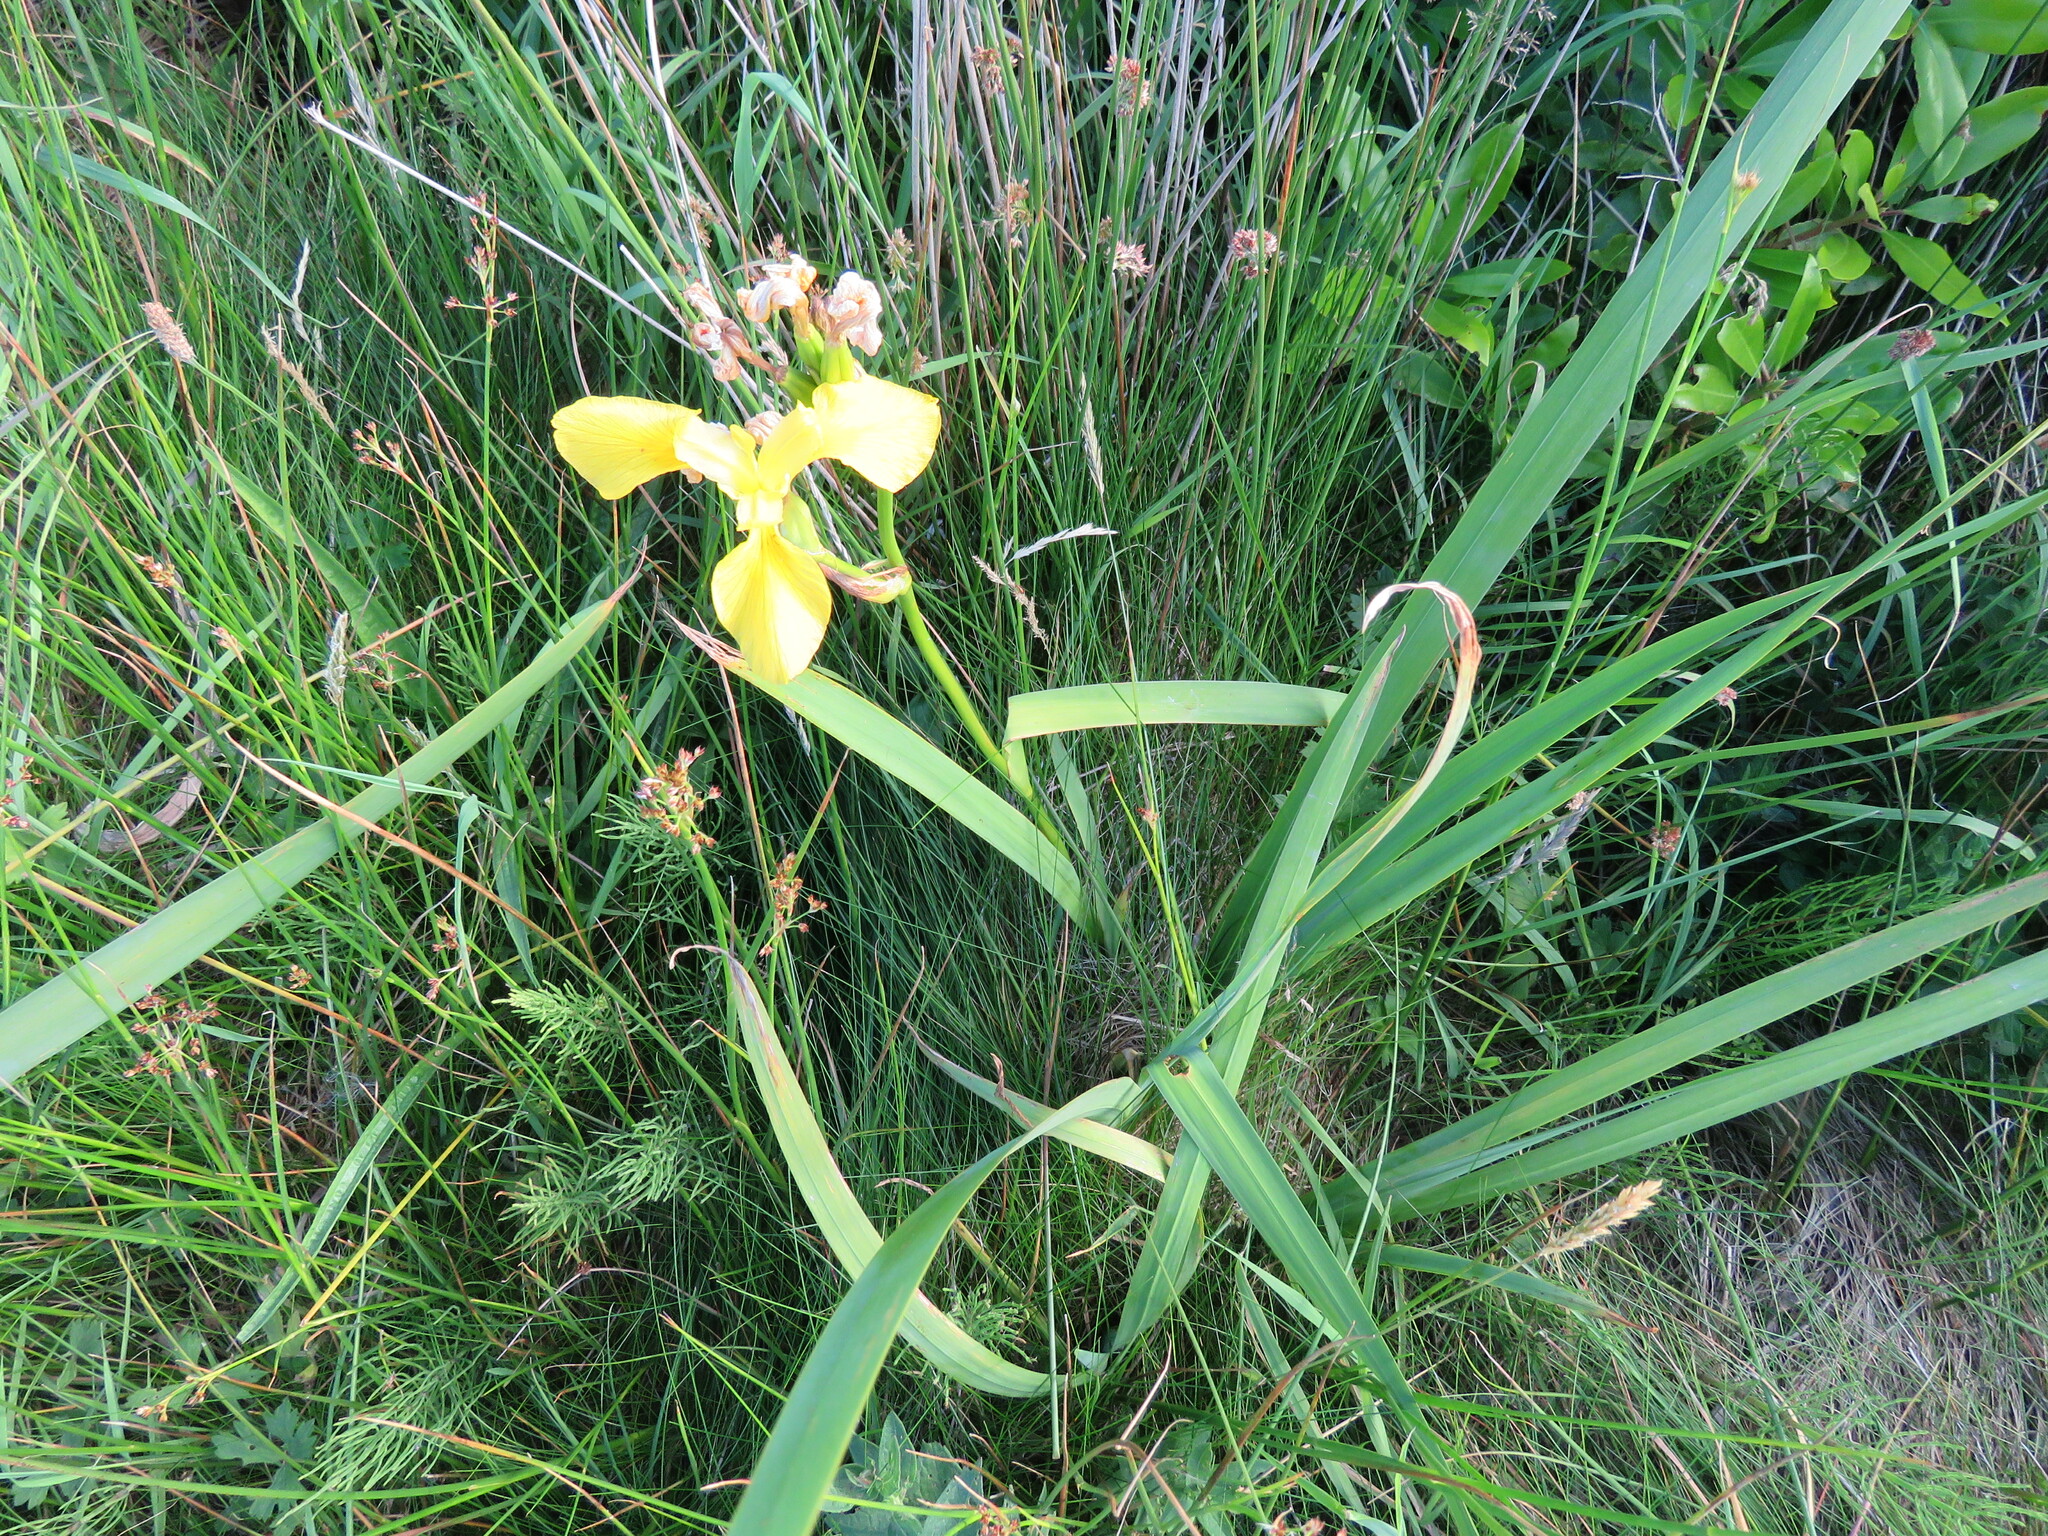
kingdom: Plantae
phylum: Tracheophyta
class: Liliopsida
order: Asparagales
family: Iridaceae
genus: Iris
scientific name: Iris pseudacorus
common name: Yellow flag
